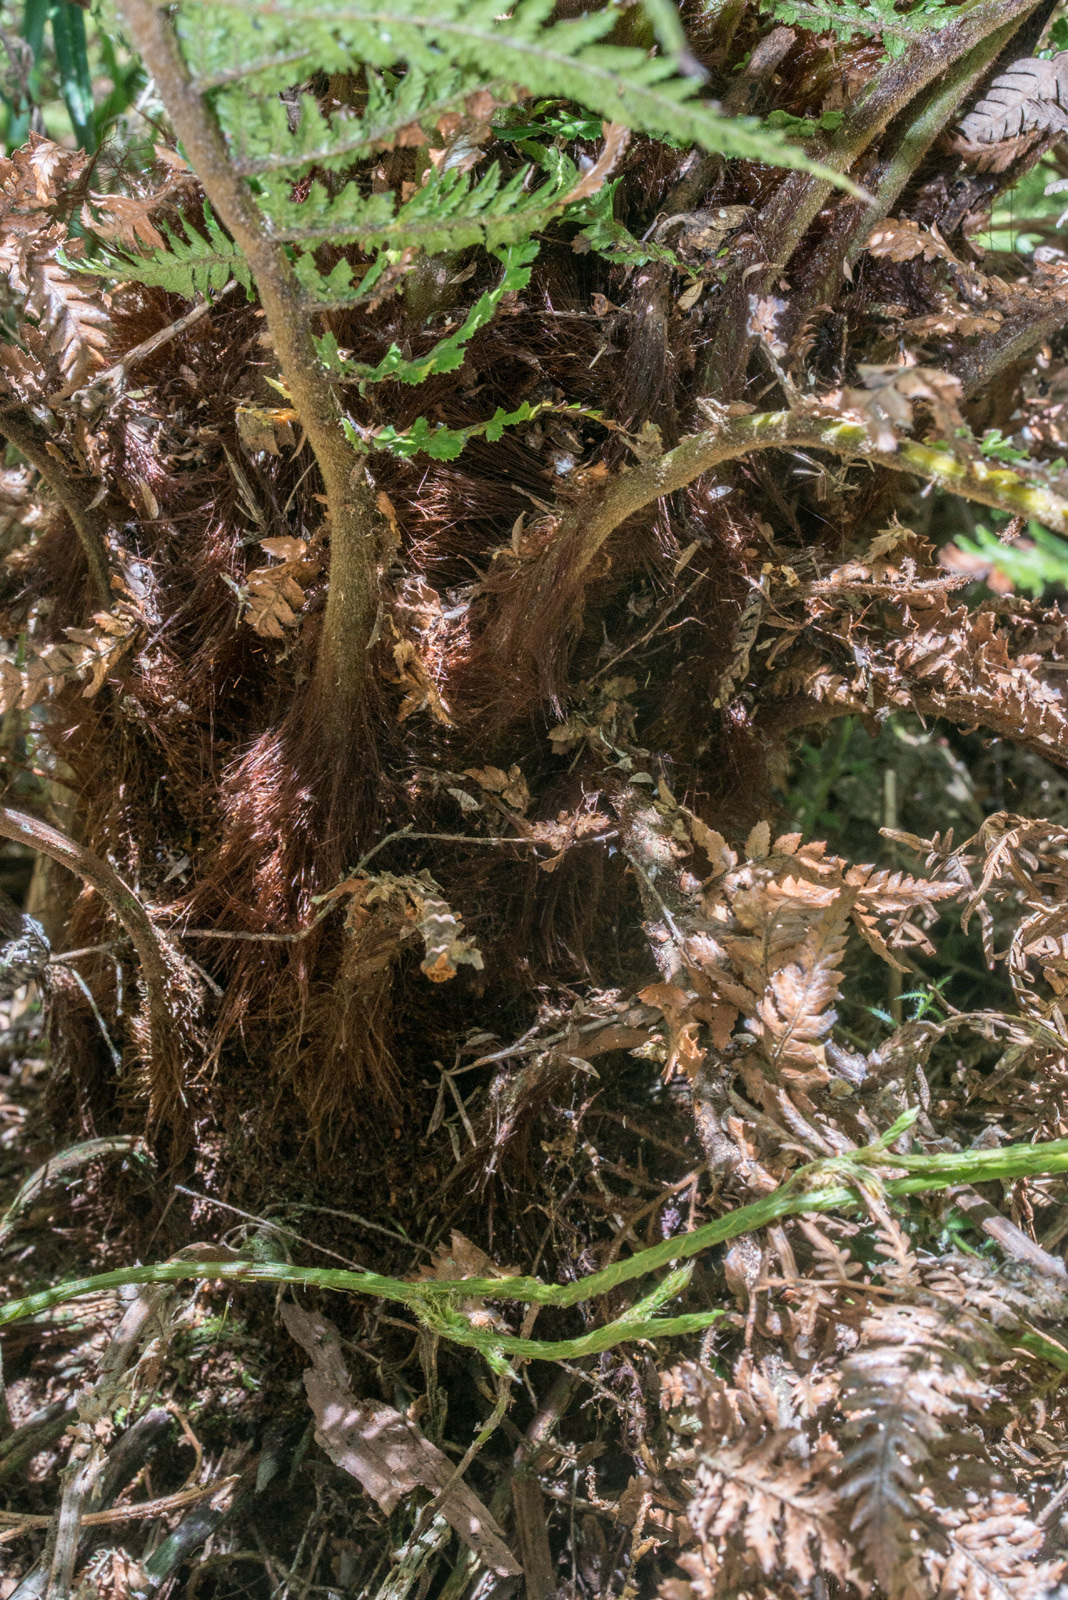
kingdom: Plantae
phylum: Tracheophyta
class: Polypodiopsida
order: Cyatheales
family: Dicksoniaceae
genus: Dicksonia
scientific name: Dicksonia fibrosa
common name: Golden tree fern
